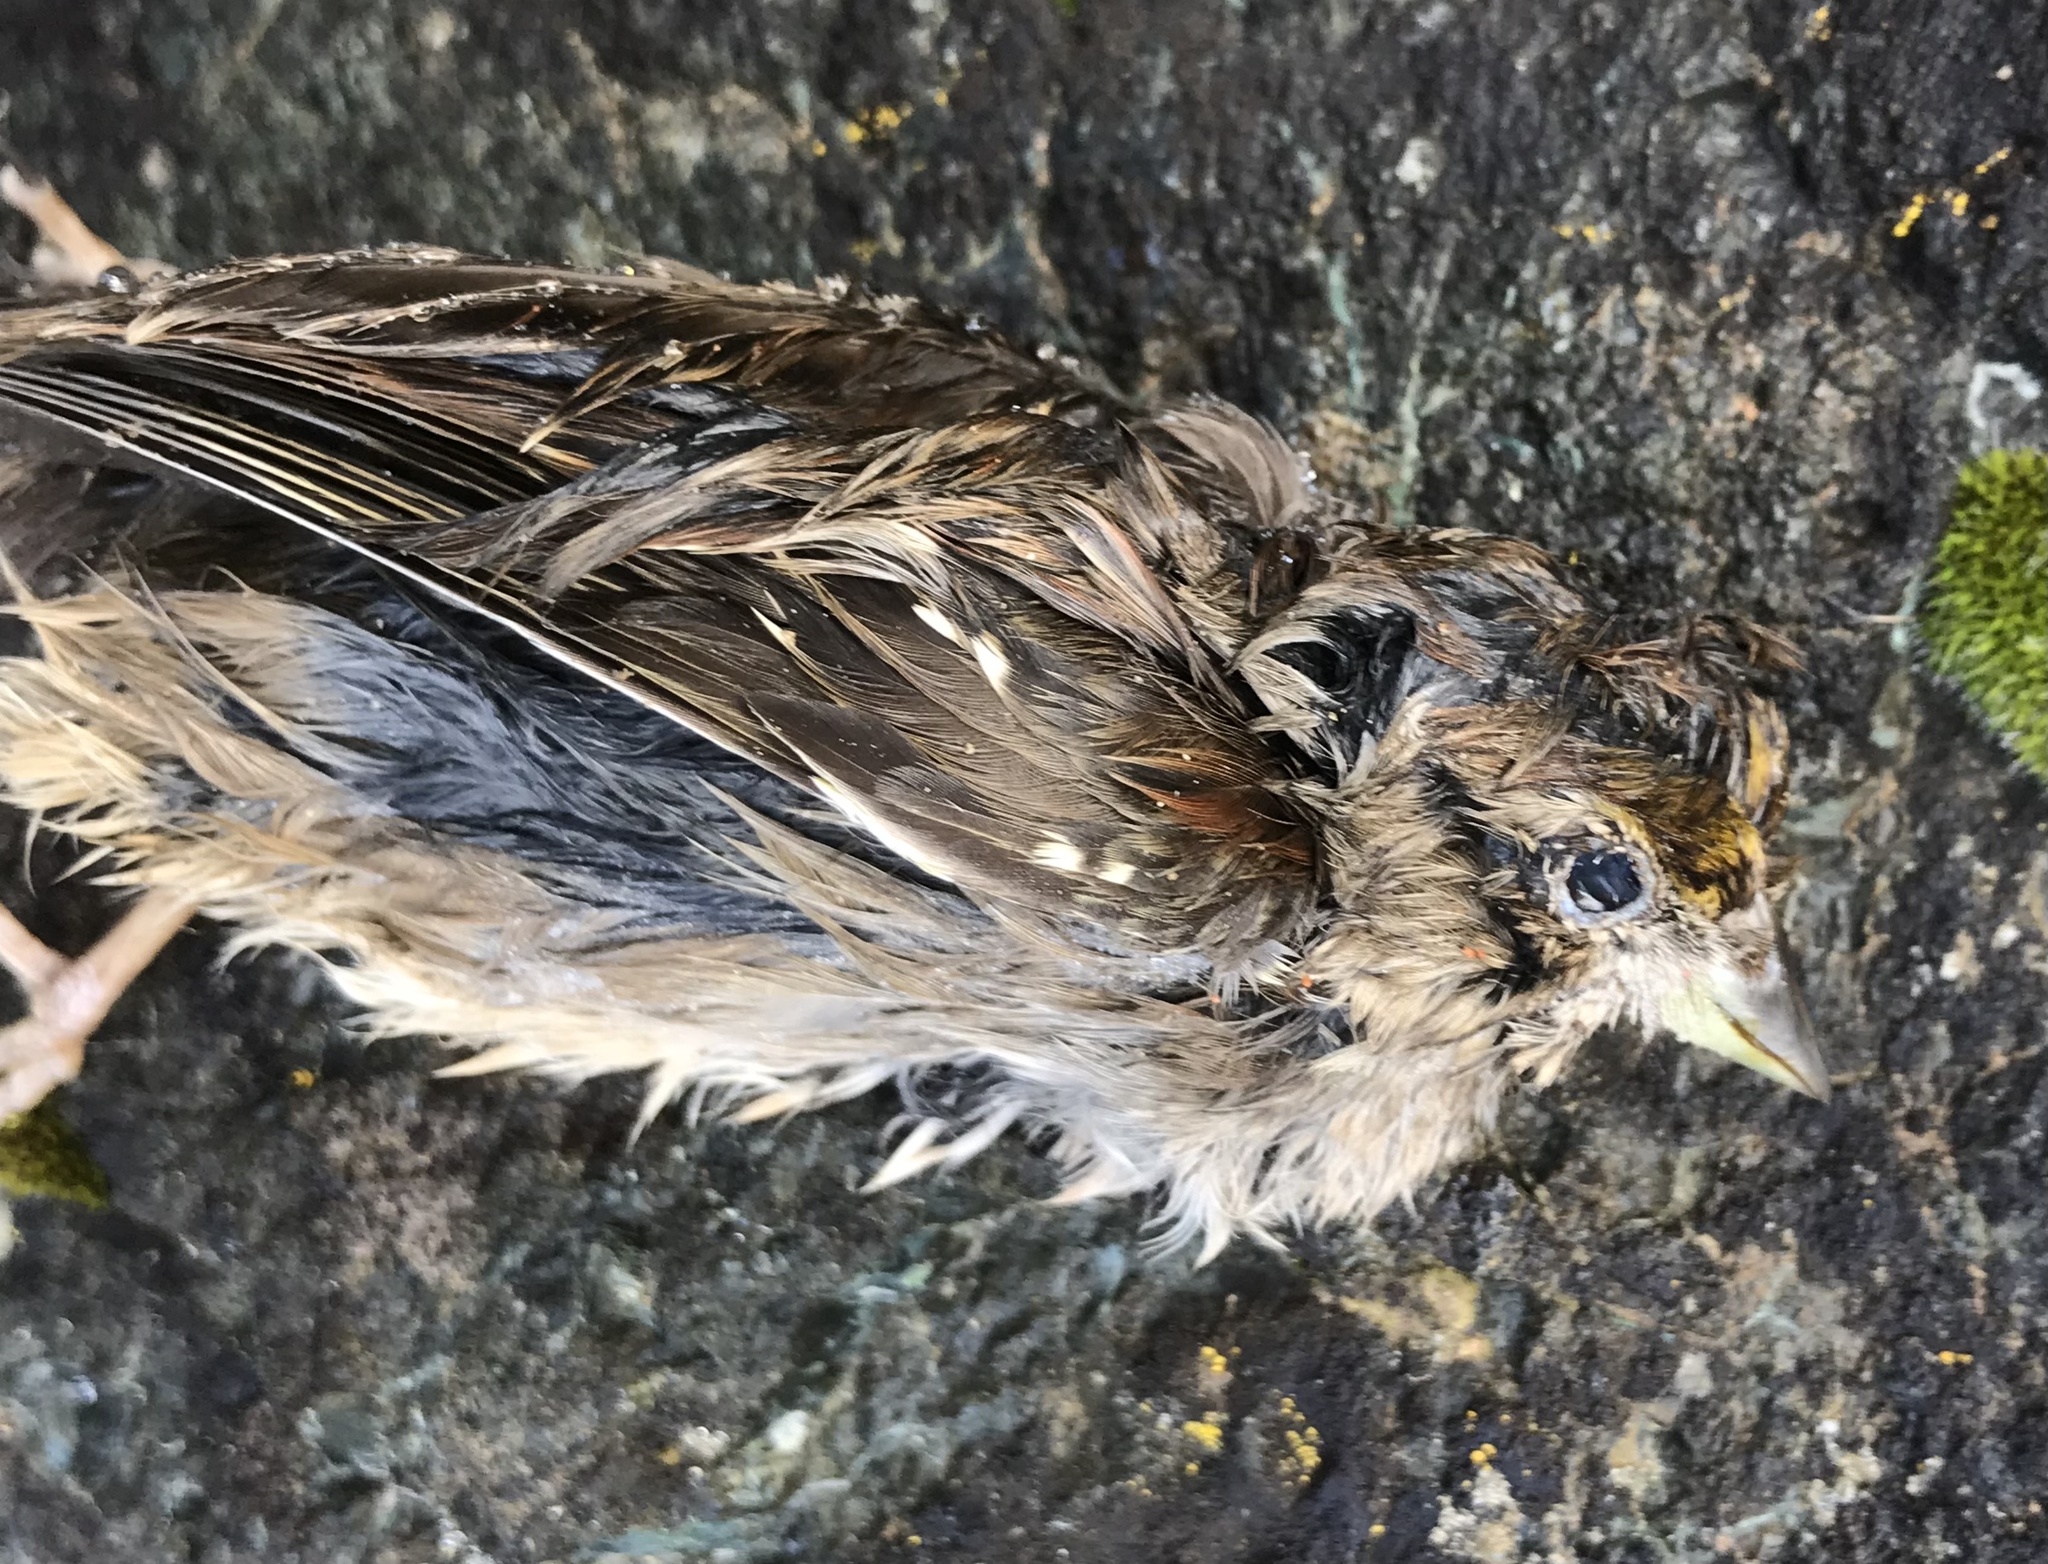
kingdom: Animalia
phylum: Chordata
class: Aves
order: Passeriformes
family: Passerellidae
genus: Zonotrichia
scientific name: Zonotrichia atricapilla
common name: Golden-crowned sparrow
